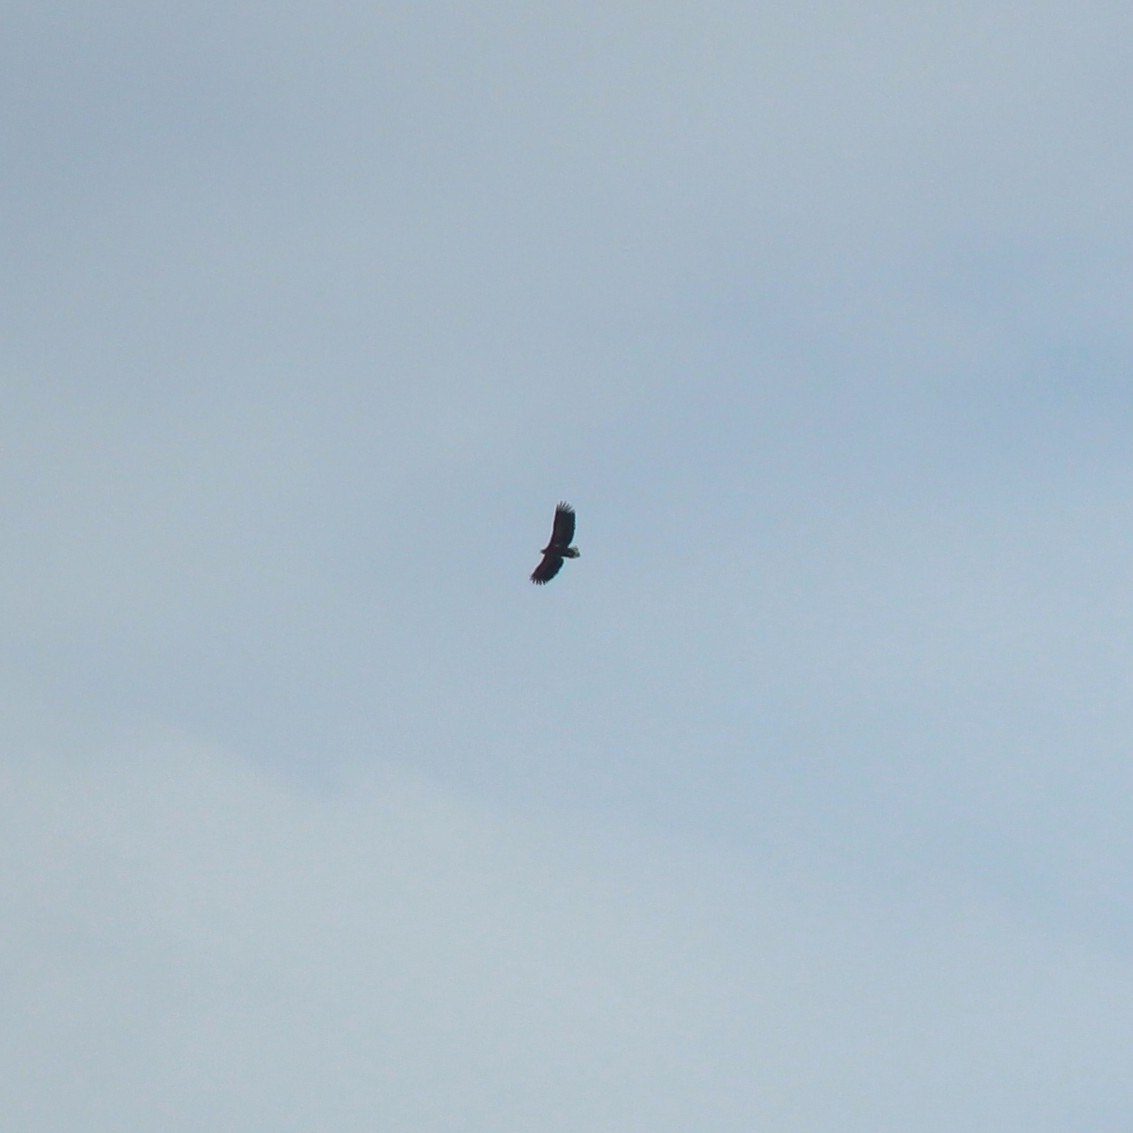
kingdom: Animalia
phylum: Chordata
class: Aves
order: Accipitriformes
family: Accipitridae
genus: Haliaeetus
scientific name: Haliaeetus albicilla
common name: White-tailed eagle
